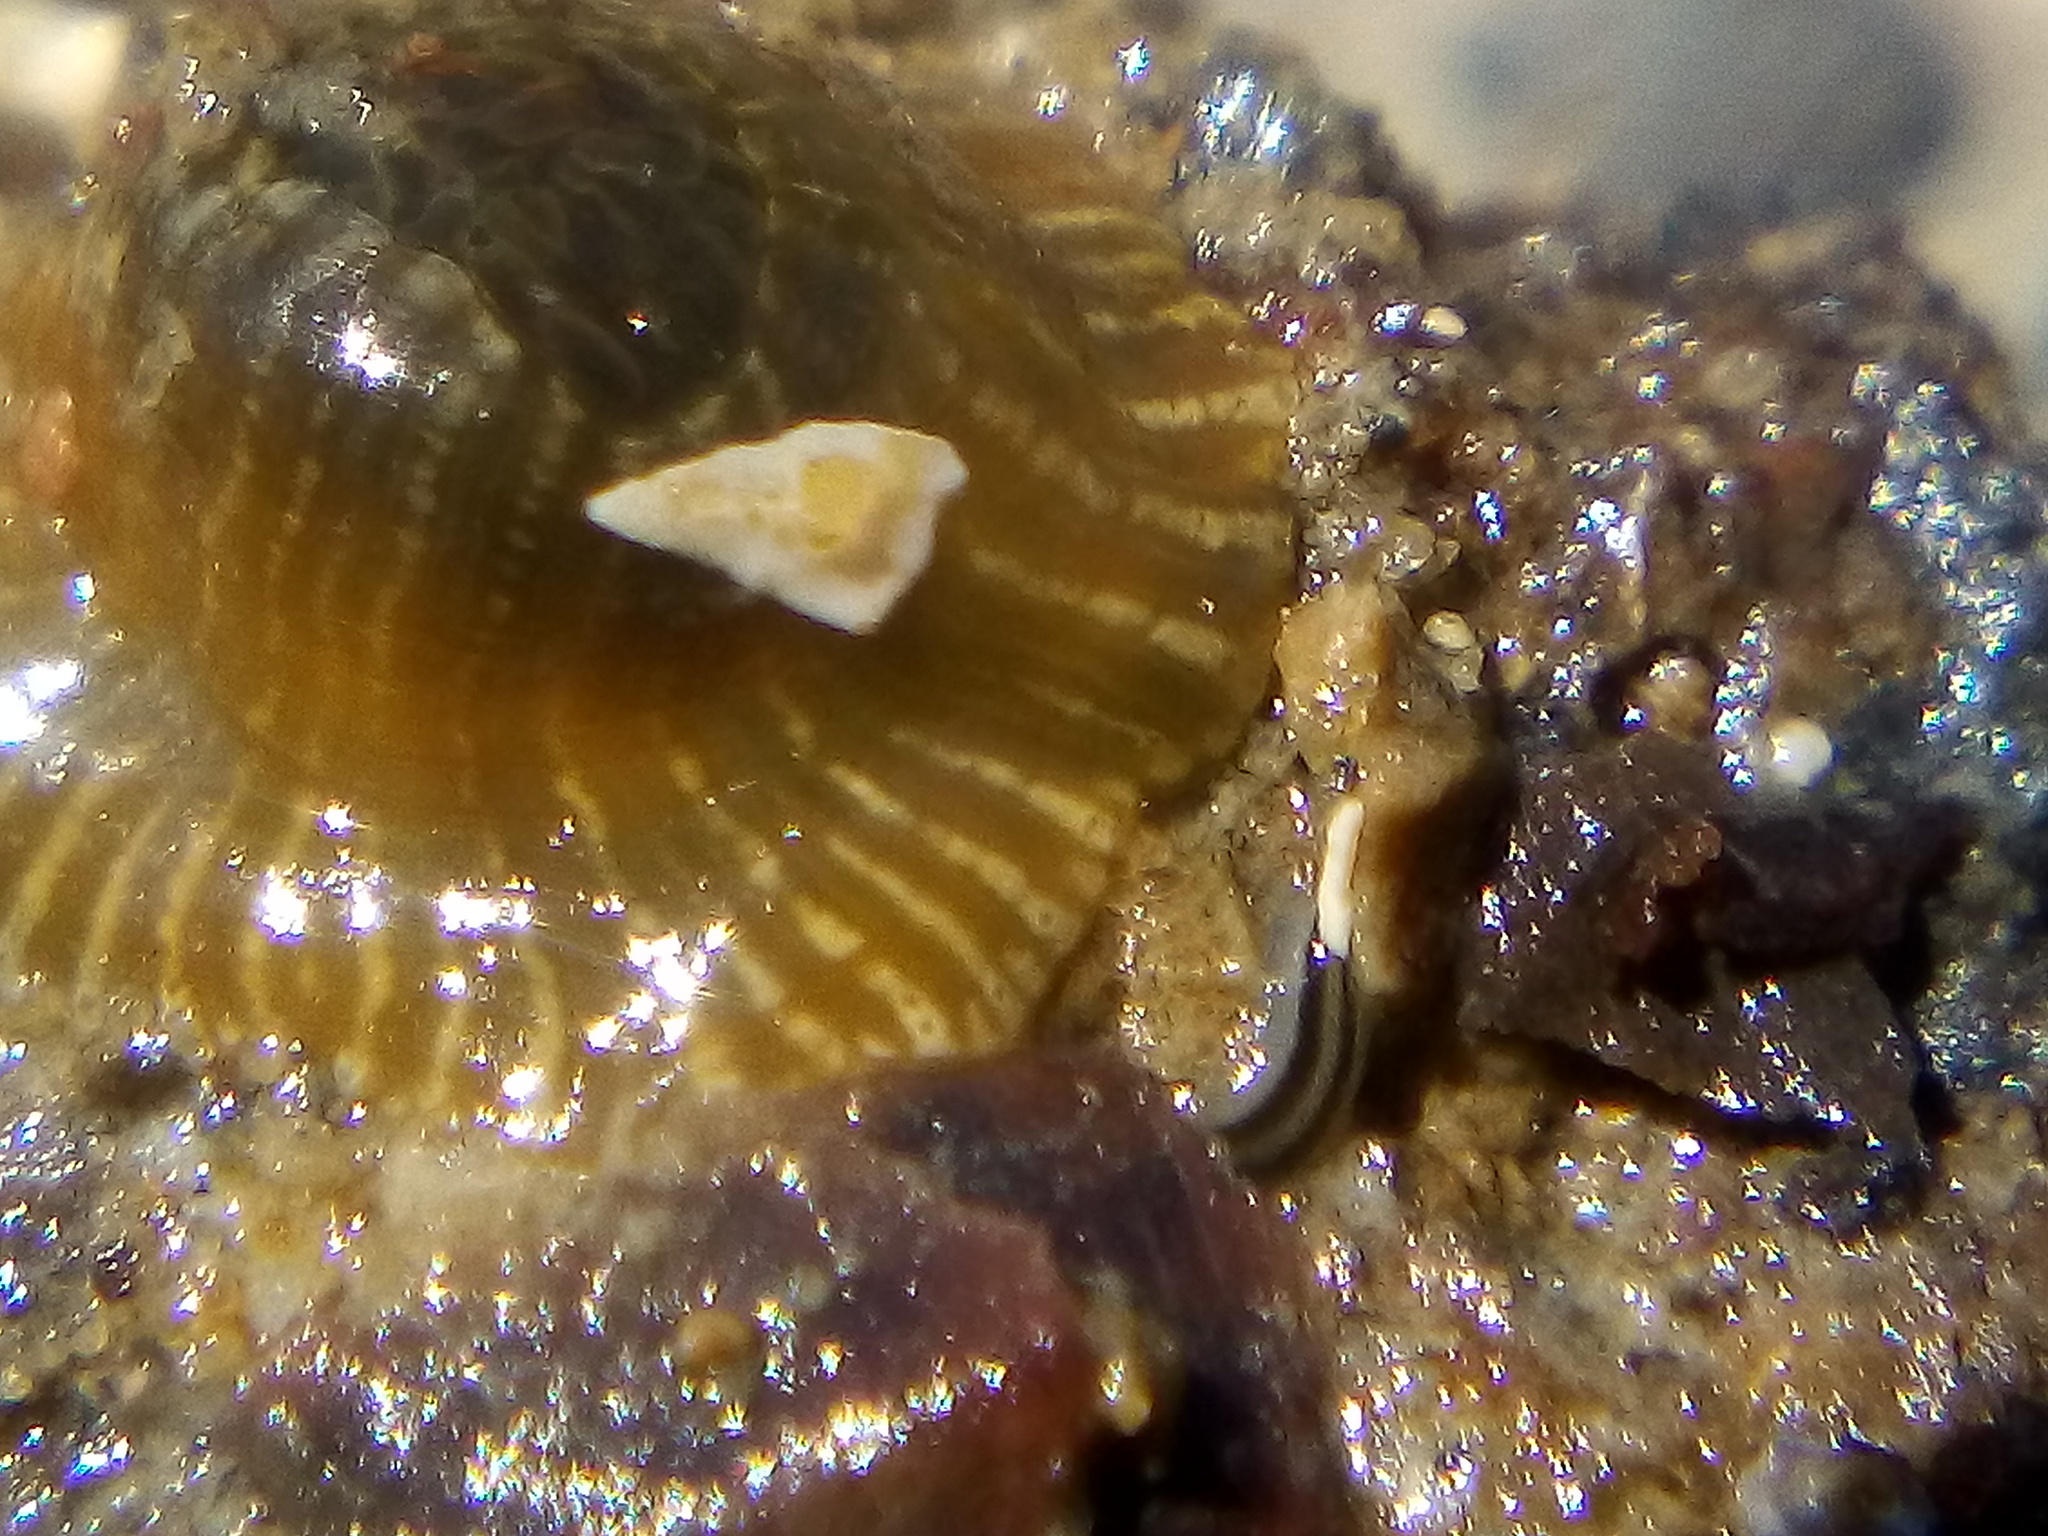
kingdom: Animalia
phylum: Nemertea
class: Hoplonemertea
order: Monostilifera
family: Emplectonematidae
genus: Nemertopsis
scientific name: Nemertopsis bivittata
